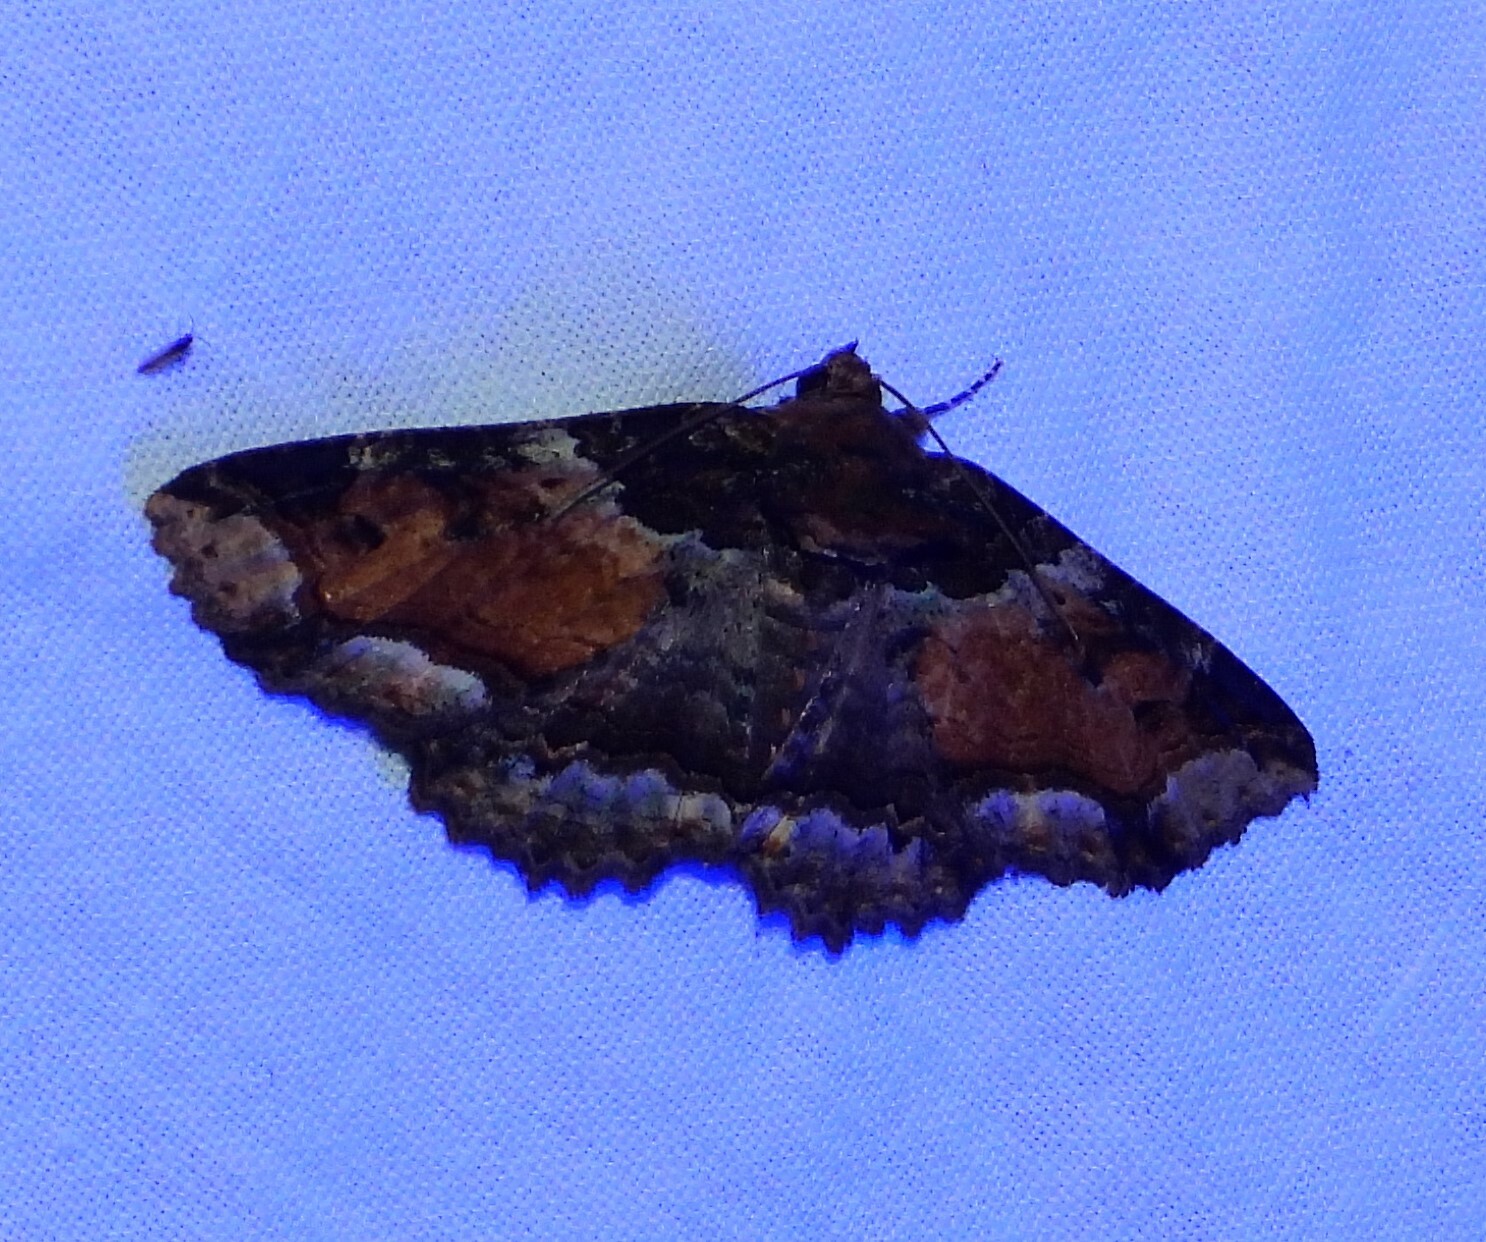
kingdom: Animalia
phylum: Arthropoda
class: Insecta
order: Lepidoptera
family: Erebidae
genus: Zale
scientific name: Zale minerea
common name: Colorful zale moth
